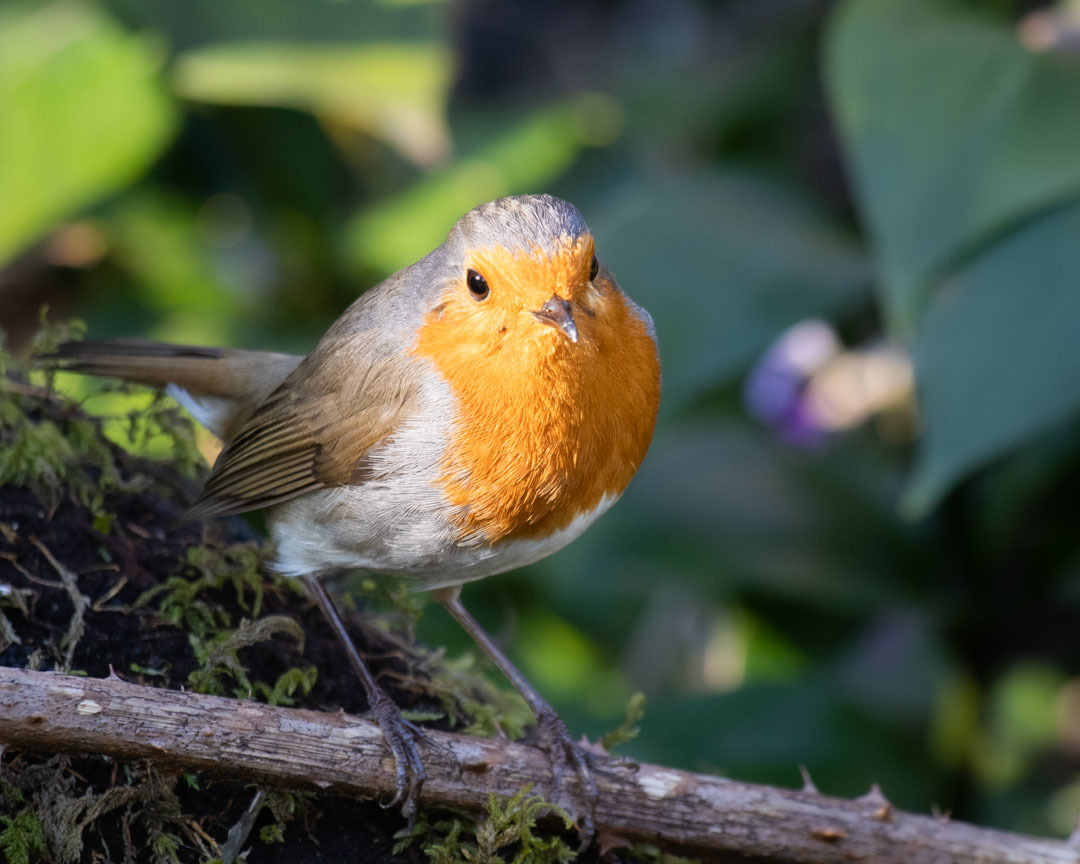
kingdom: Animalia
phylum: Chordata
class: Aves
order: Passeriformes
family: Muscicapidae
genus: Erithacus
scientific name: Erithacus rubecula
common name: European robin
